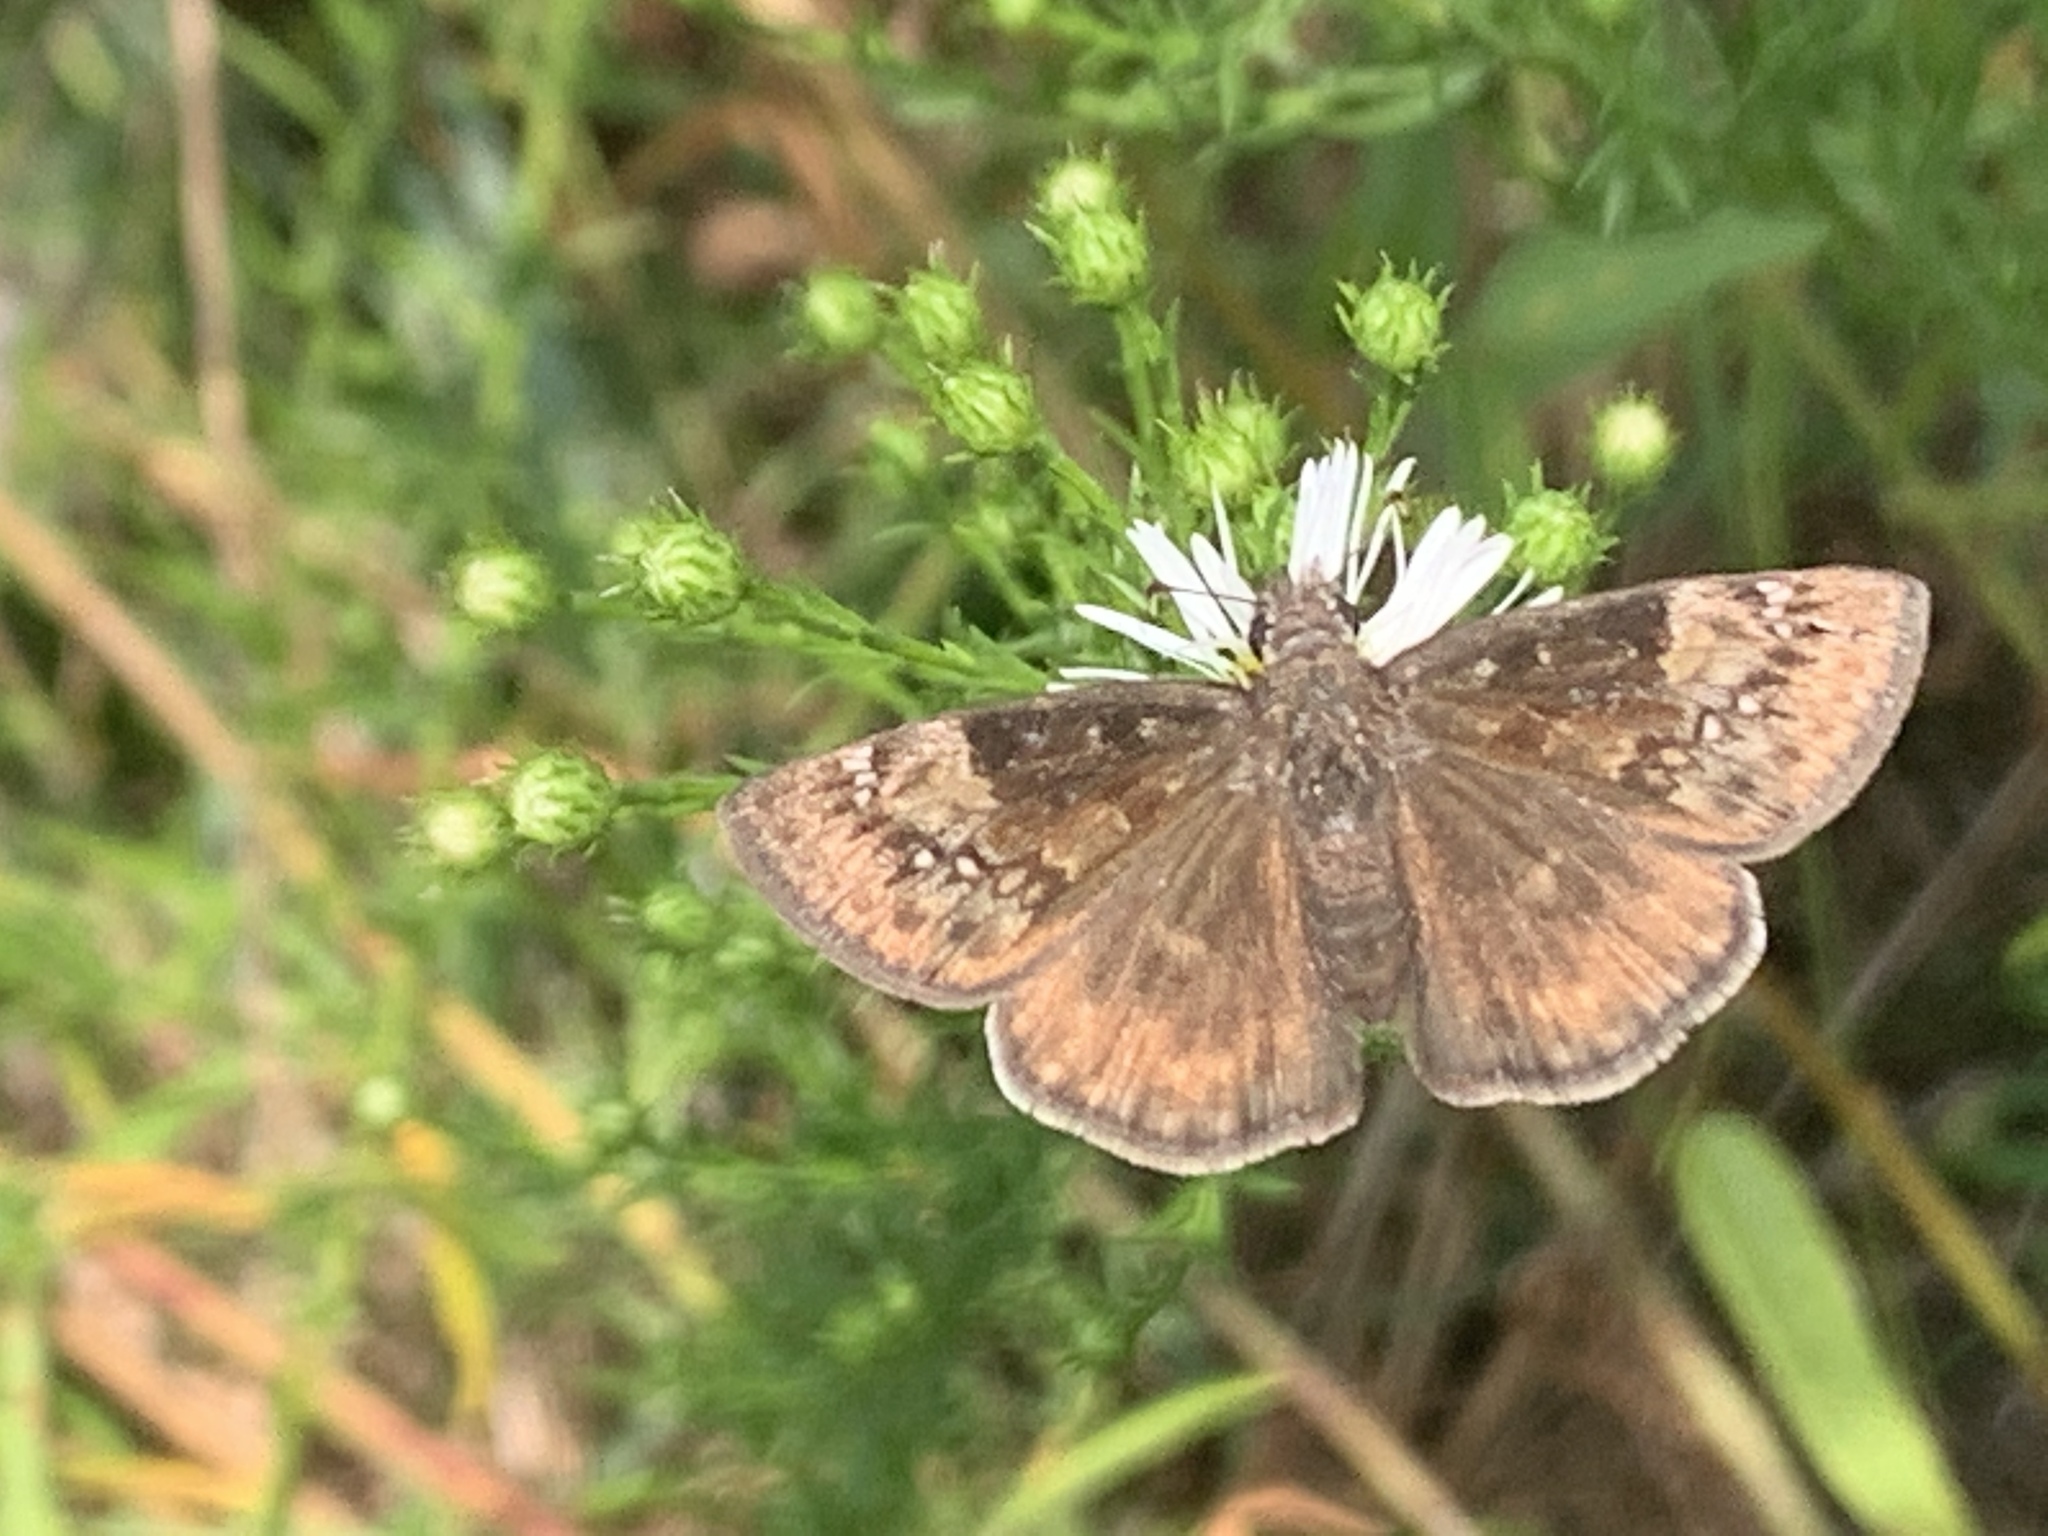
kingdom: Animalia
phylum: Arthropoda
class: Insecta
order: Lepidoptera
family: Hesperiidae
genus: Erynnis
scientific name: Erynnis baptisiae
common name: Wild indigo duskywing
